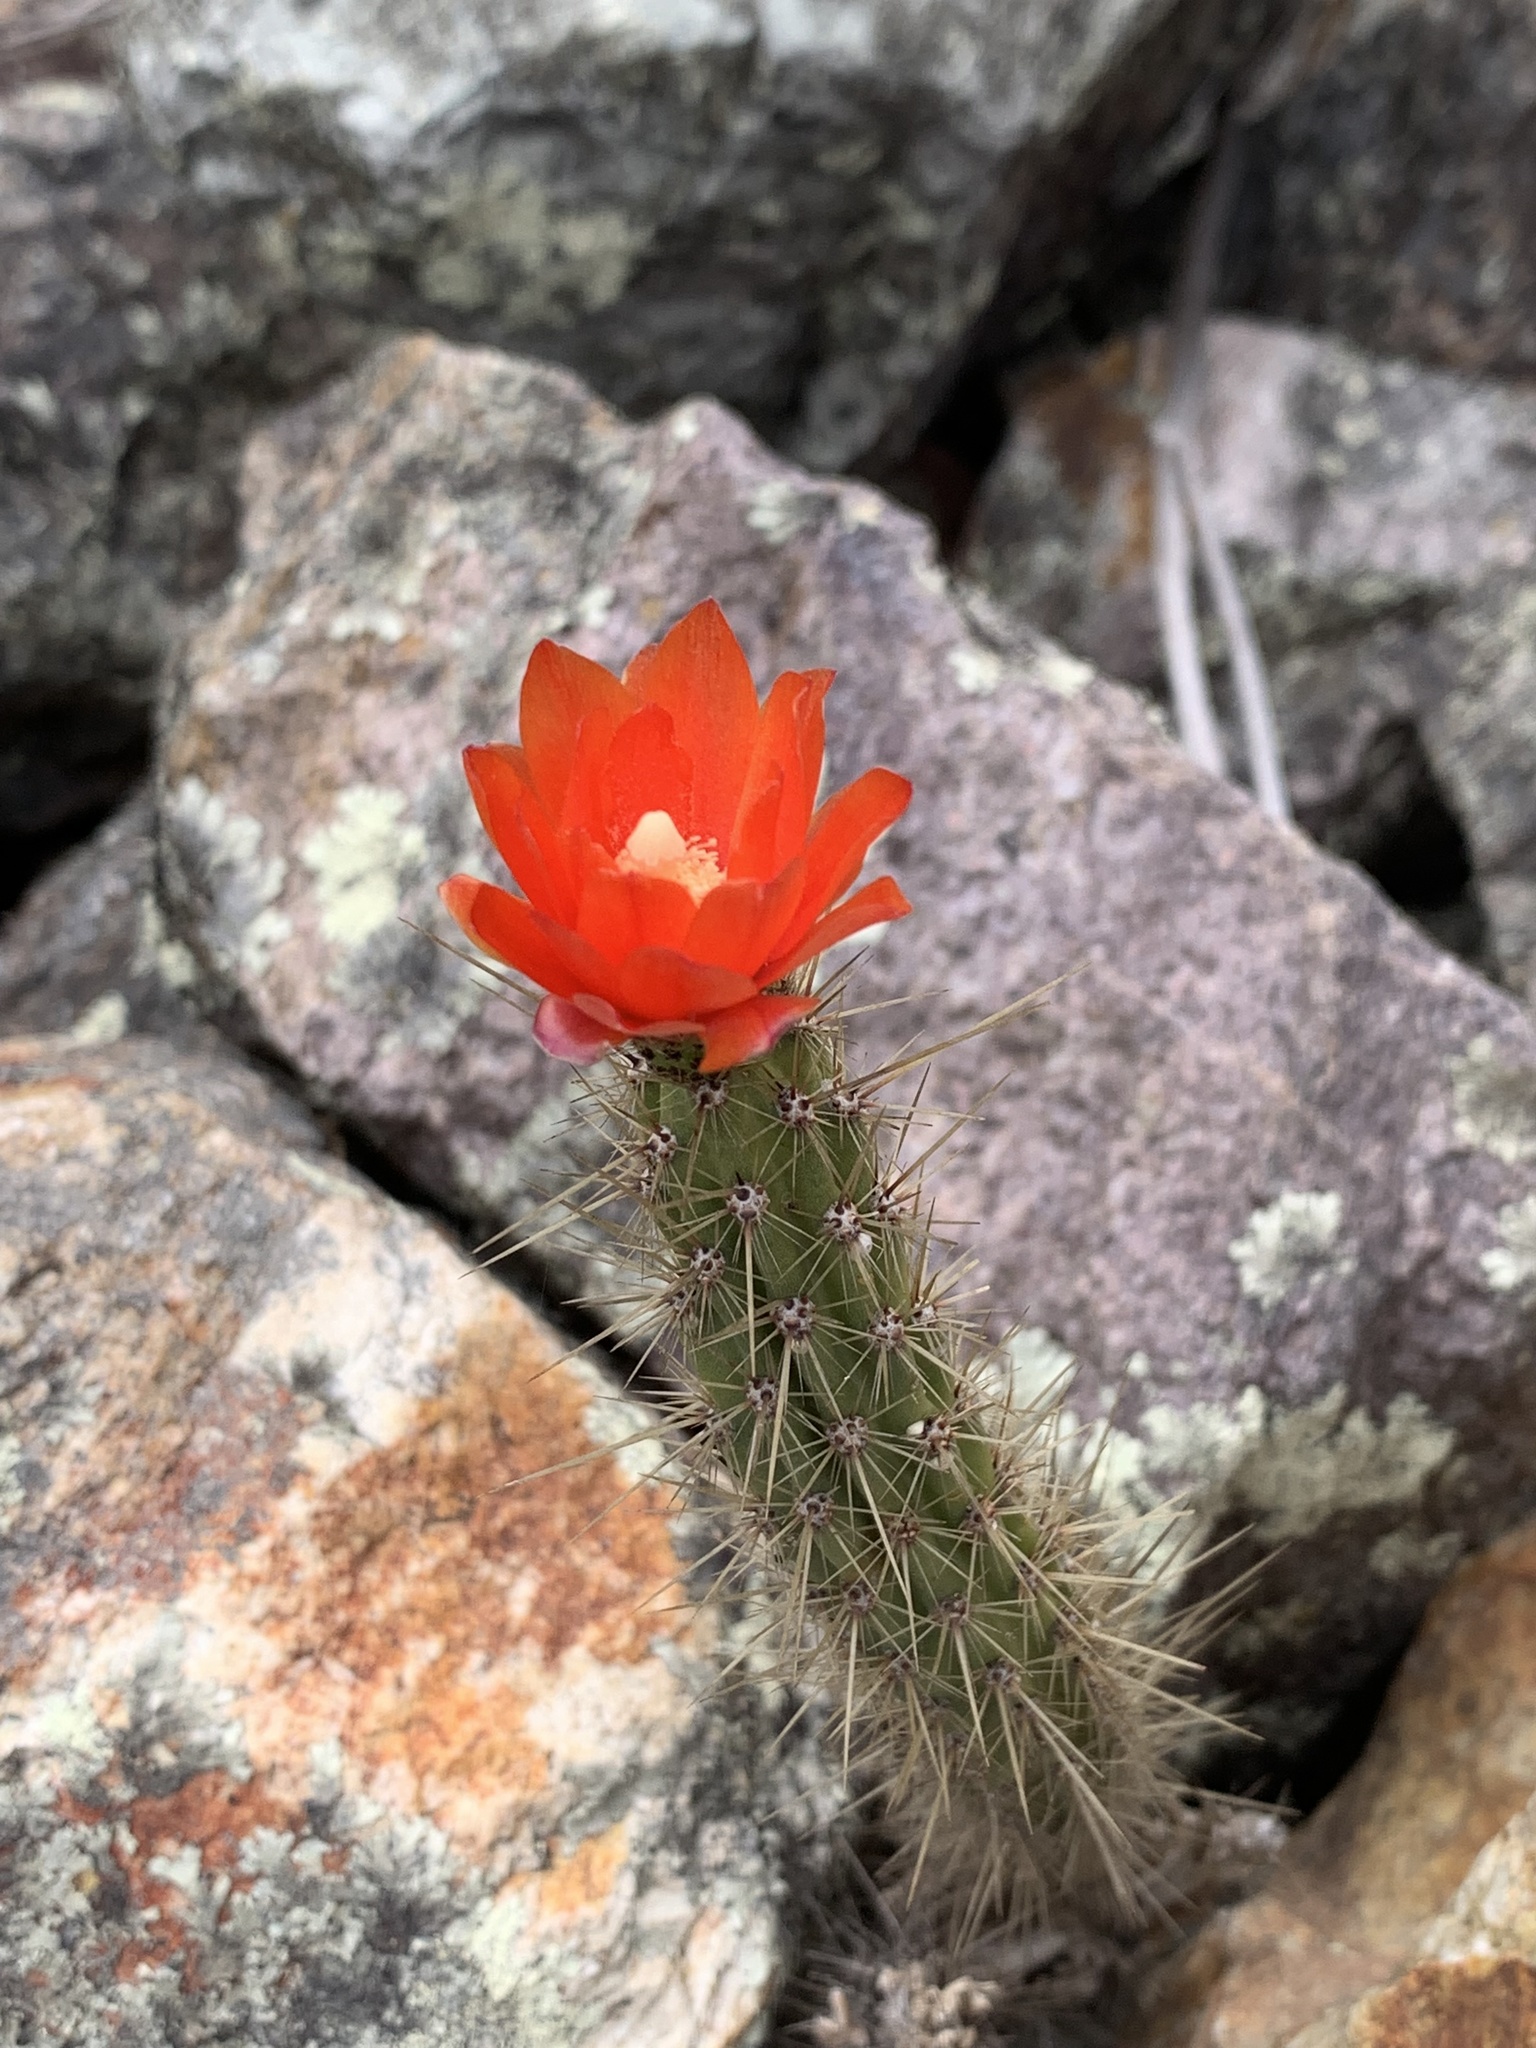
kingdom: Plantae
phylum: Tracheophyta
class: Magnoliopsida
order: Caryophyllales
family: Cactaceae
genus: Corryocactus
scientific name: Corryocactus erectus
